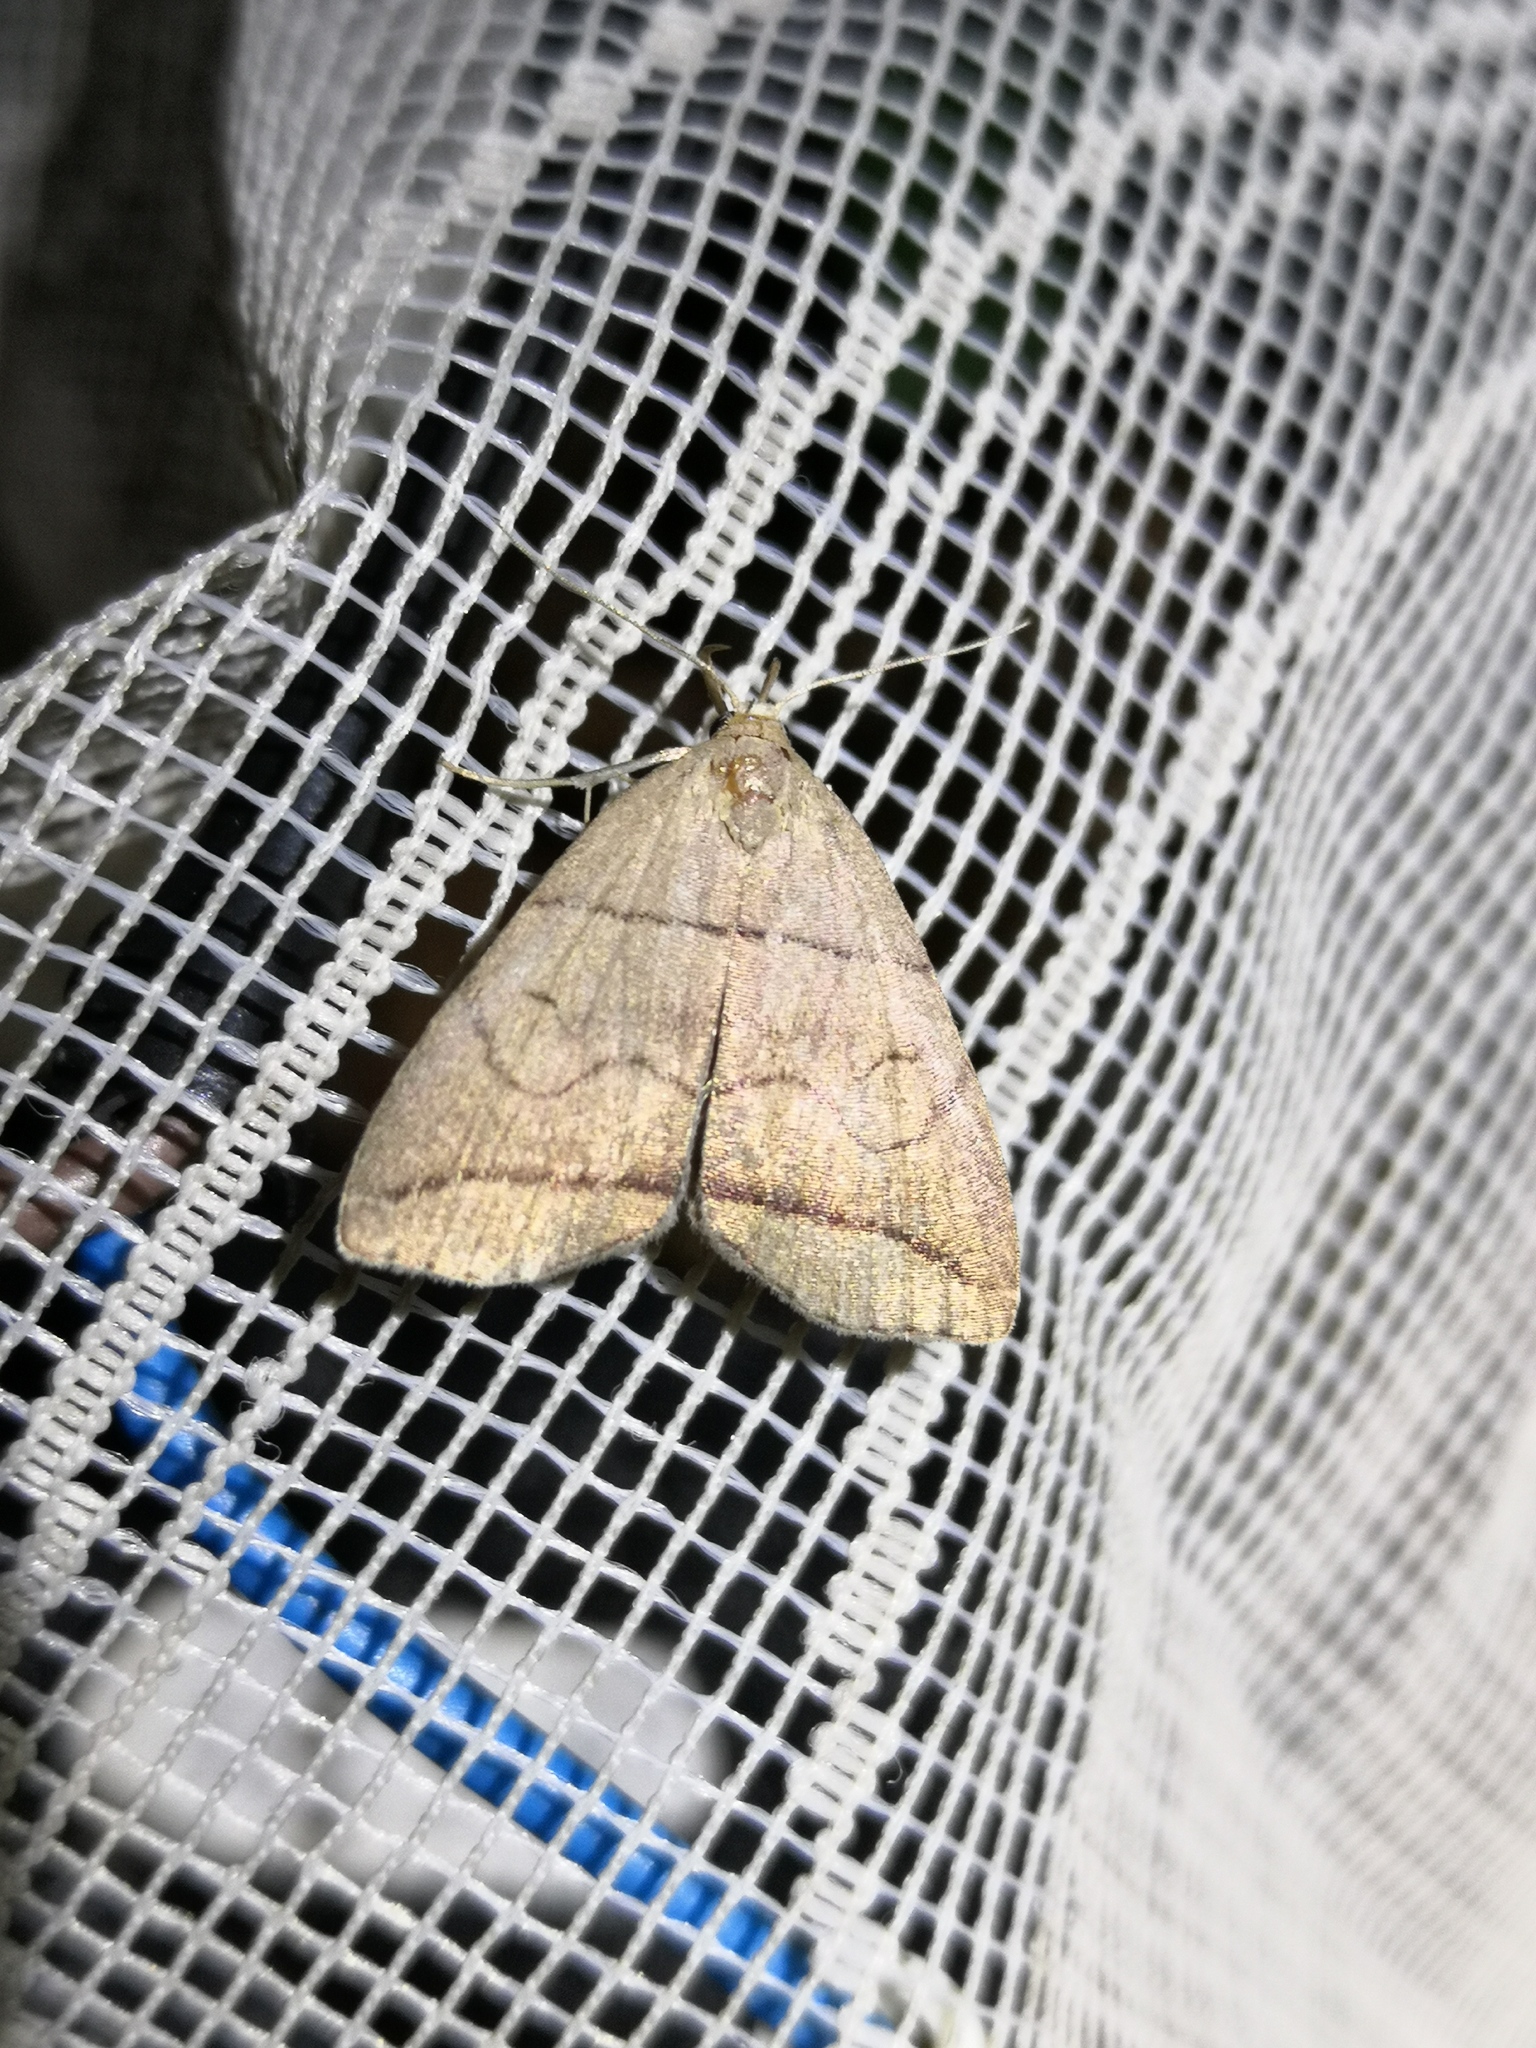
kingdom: Animalia
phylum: Arthropoda
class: Insecta
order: Lepidoptera
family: Erebidae
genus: Herminia
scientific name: Herminia grisealis
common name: Small fan-foot
